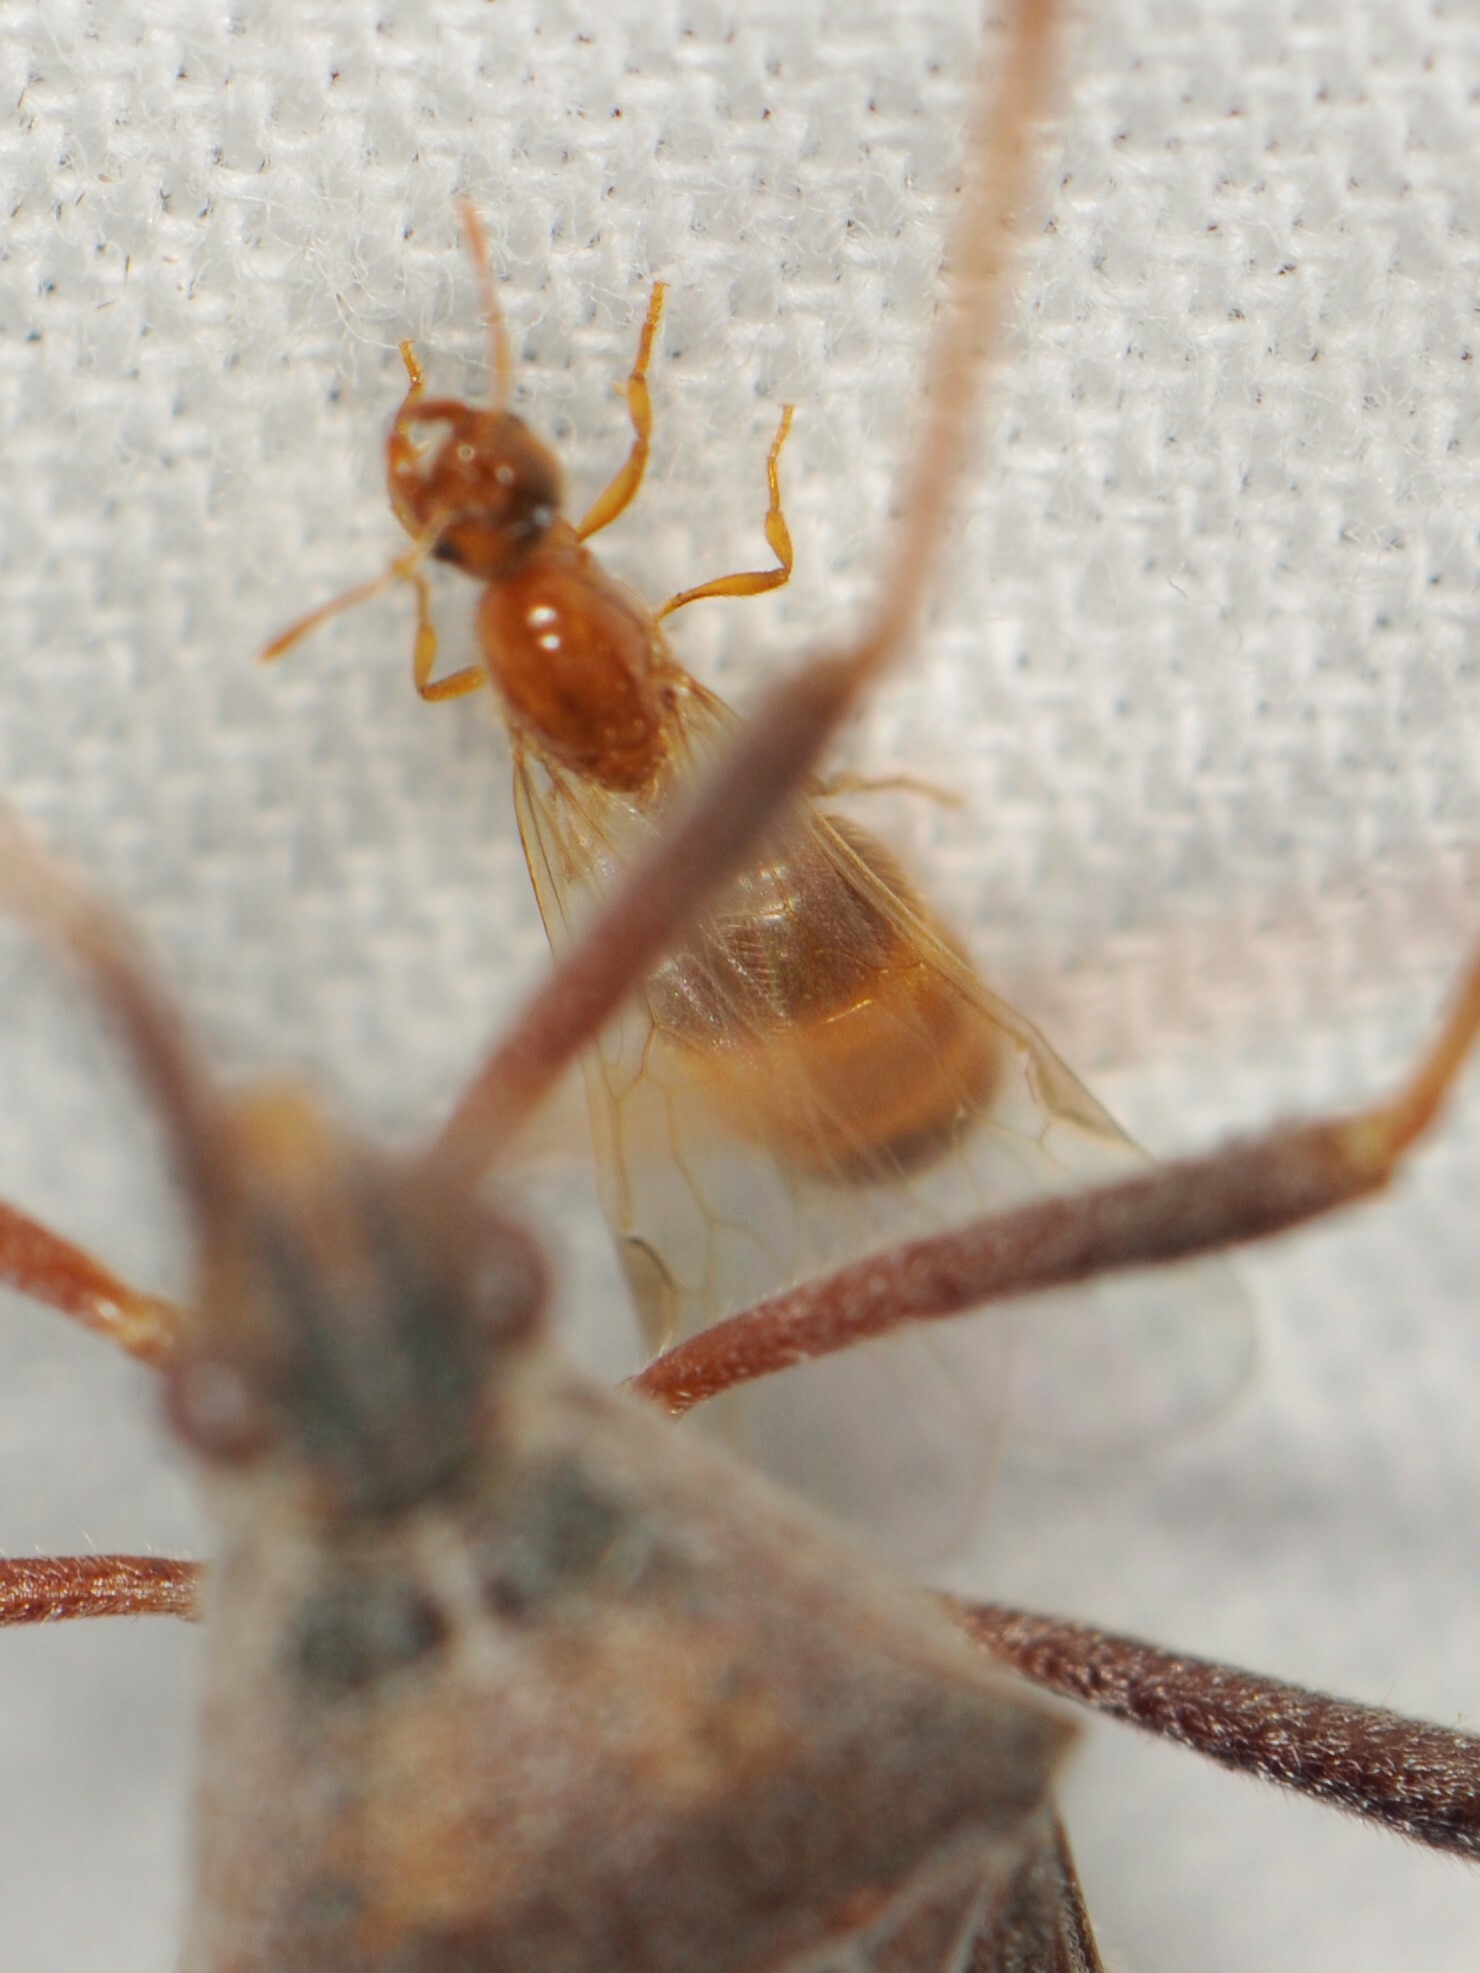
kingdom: Animalia
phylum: Arthropoda
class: Insecta
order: Hymenoptera
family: Formicidae
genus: Solenopsis
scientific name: Solenopsis
